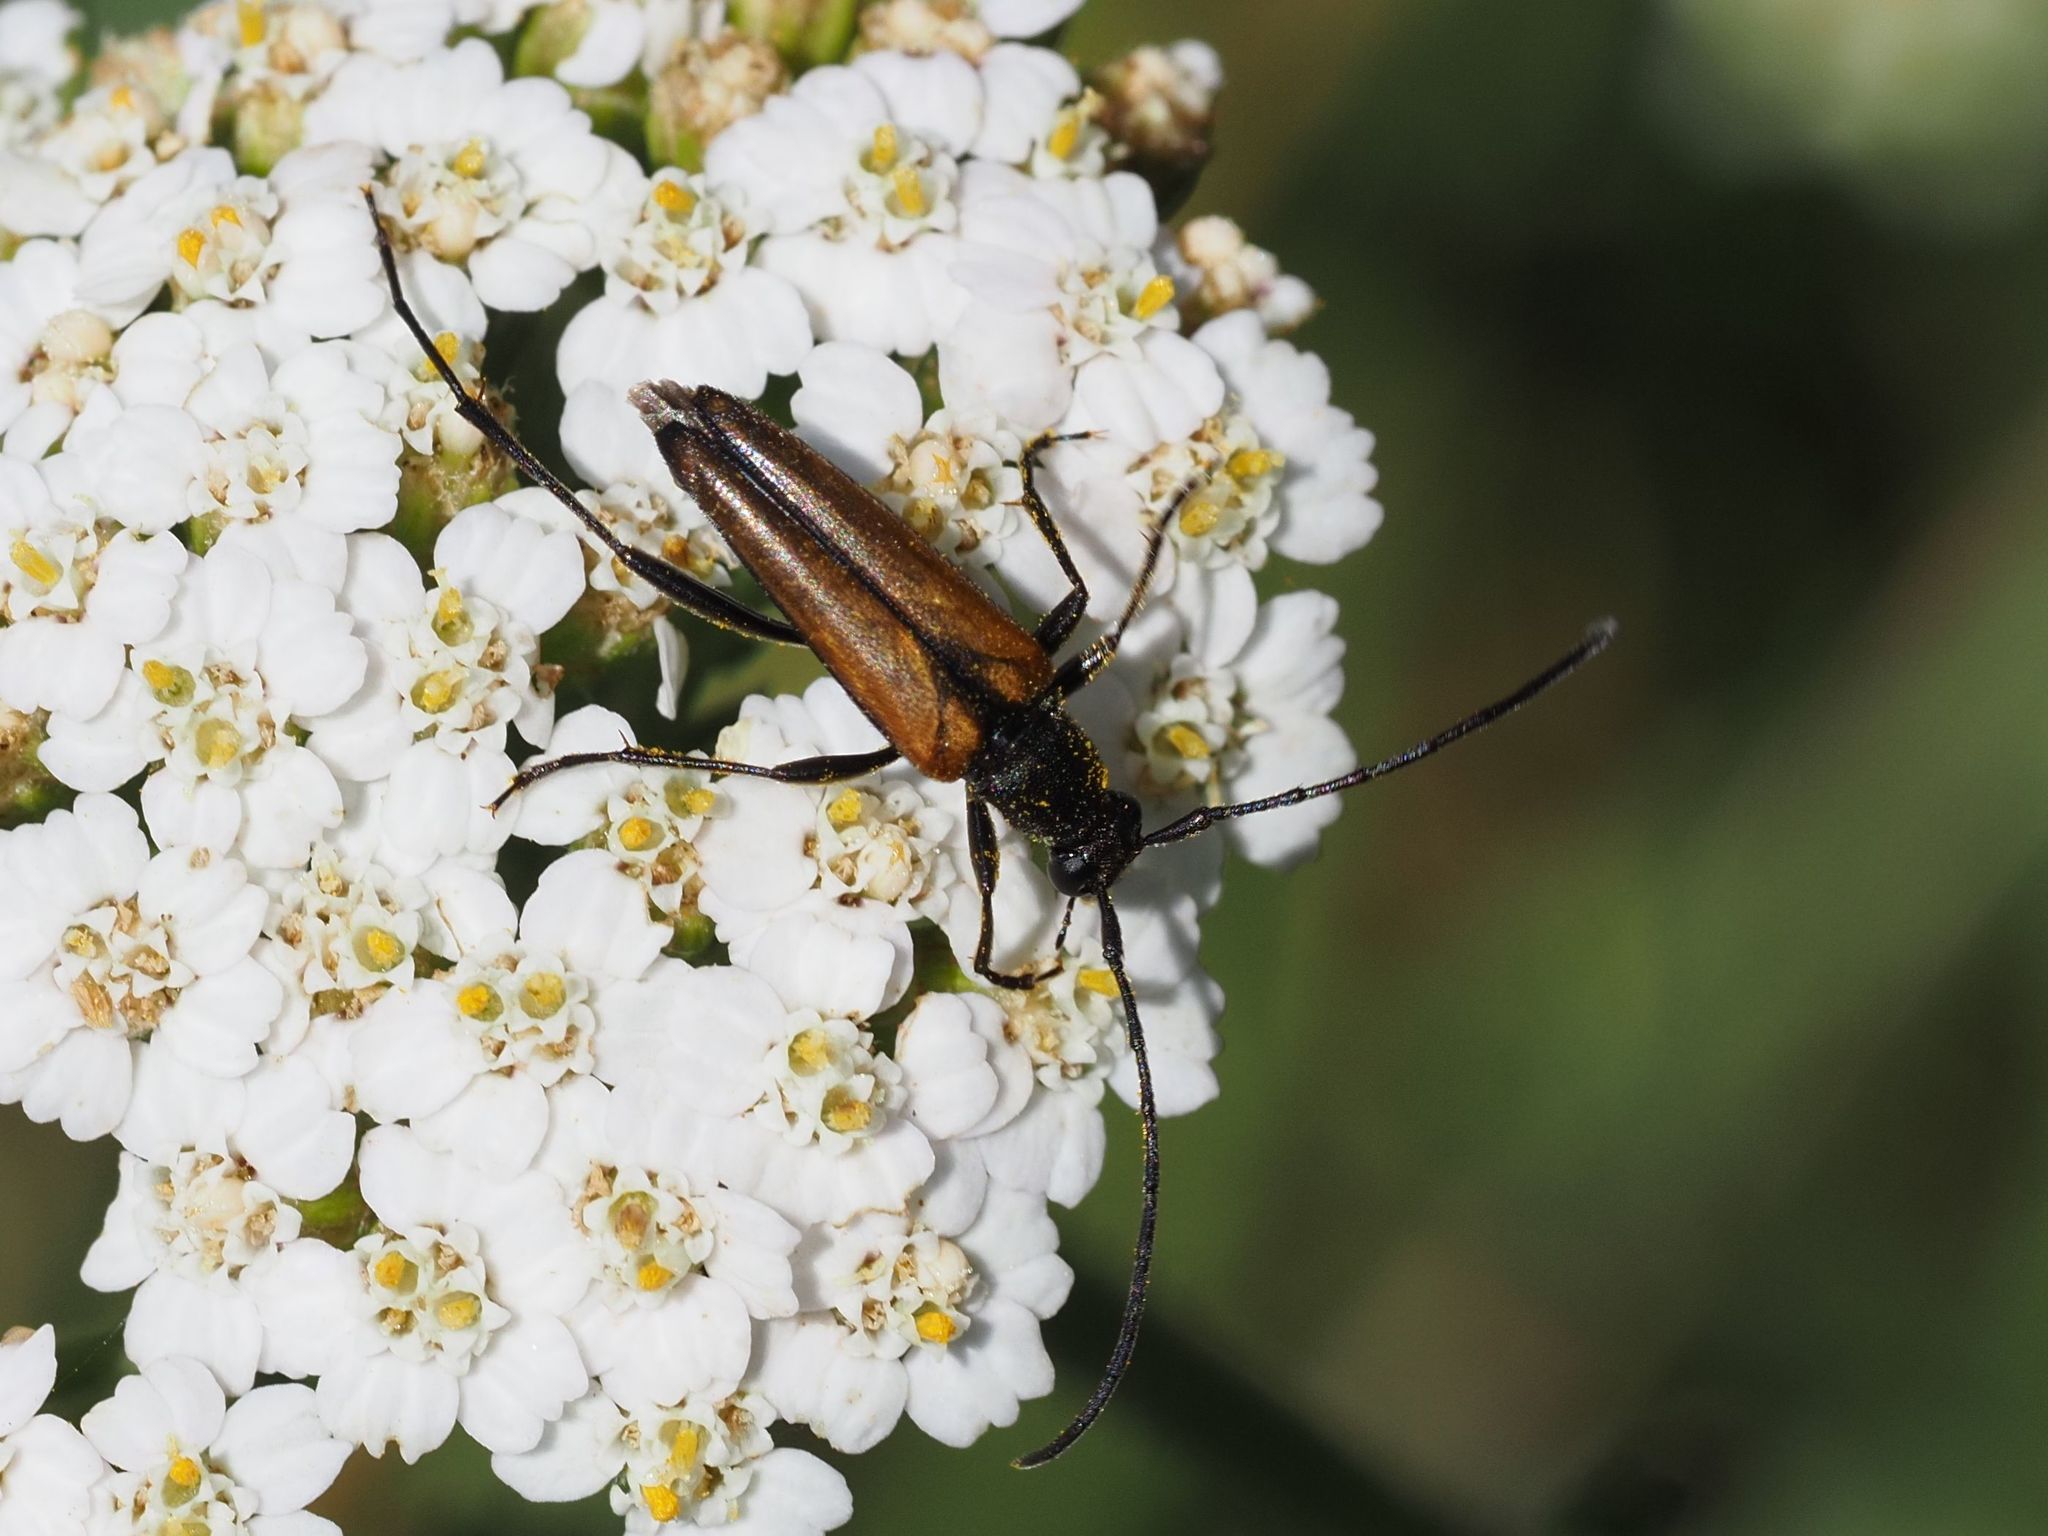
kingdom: Animalia
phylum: Arthropoda
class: Insecta
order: Coleoptera
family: Cerambycidae
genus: Stenurella
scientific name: Stenurella melanura
